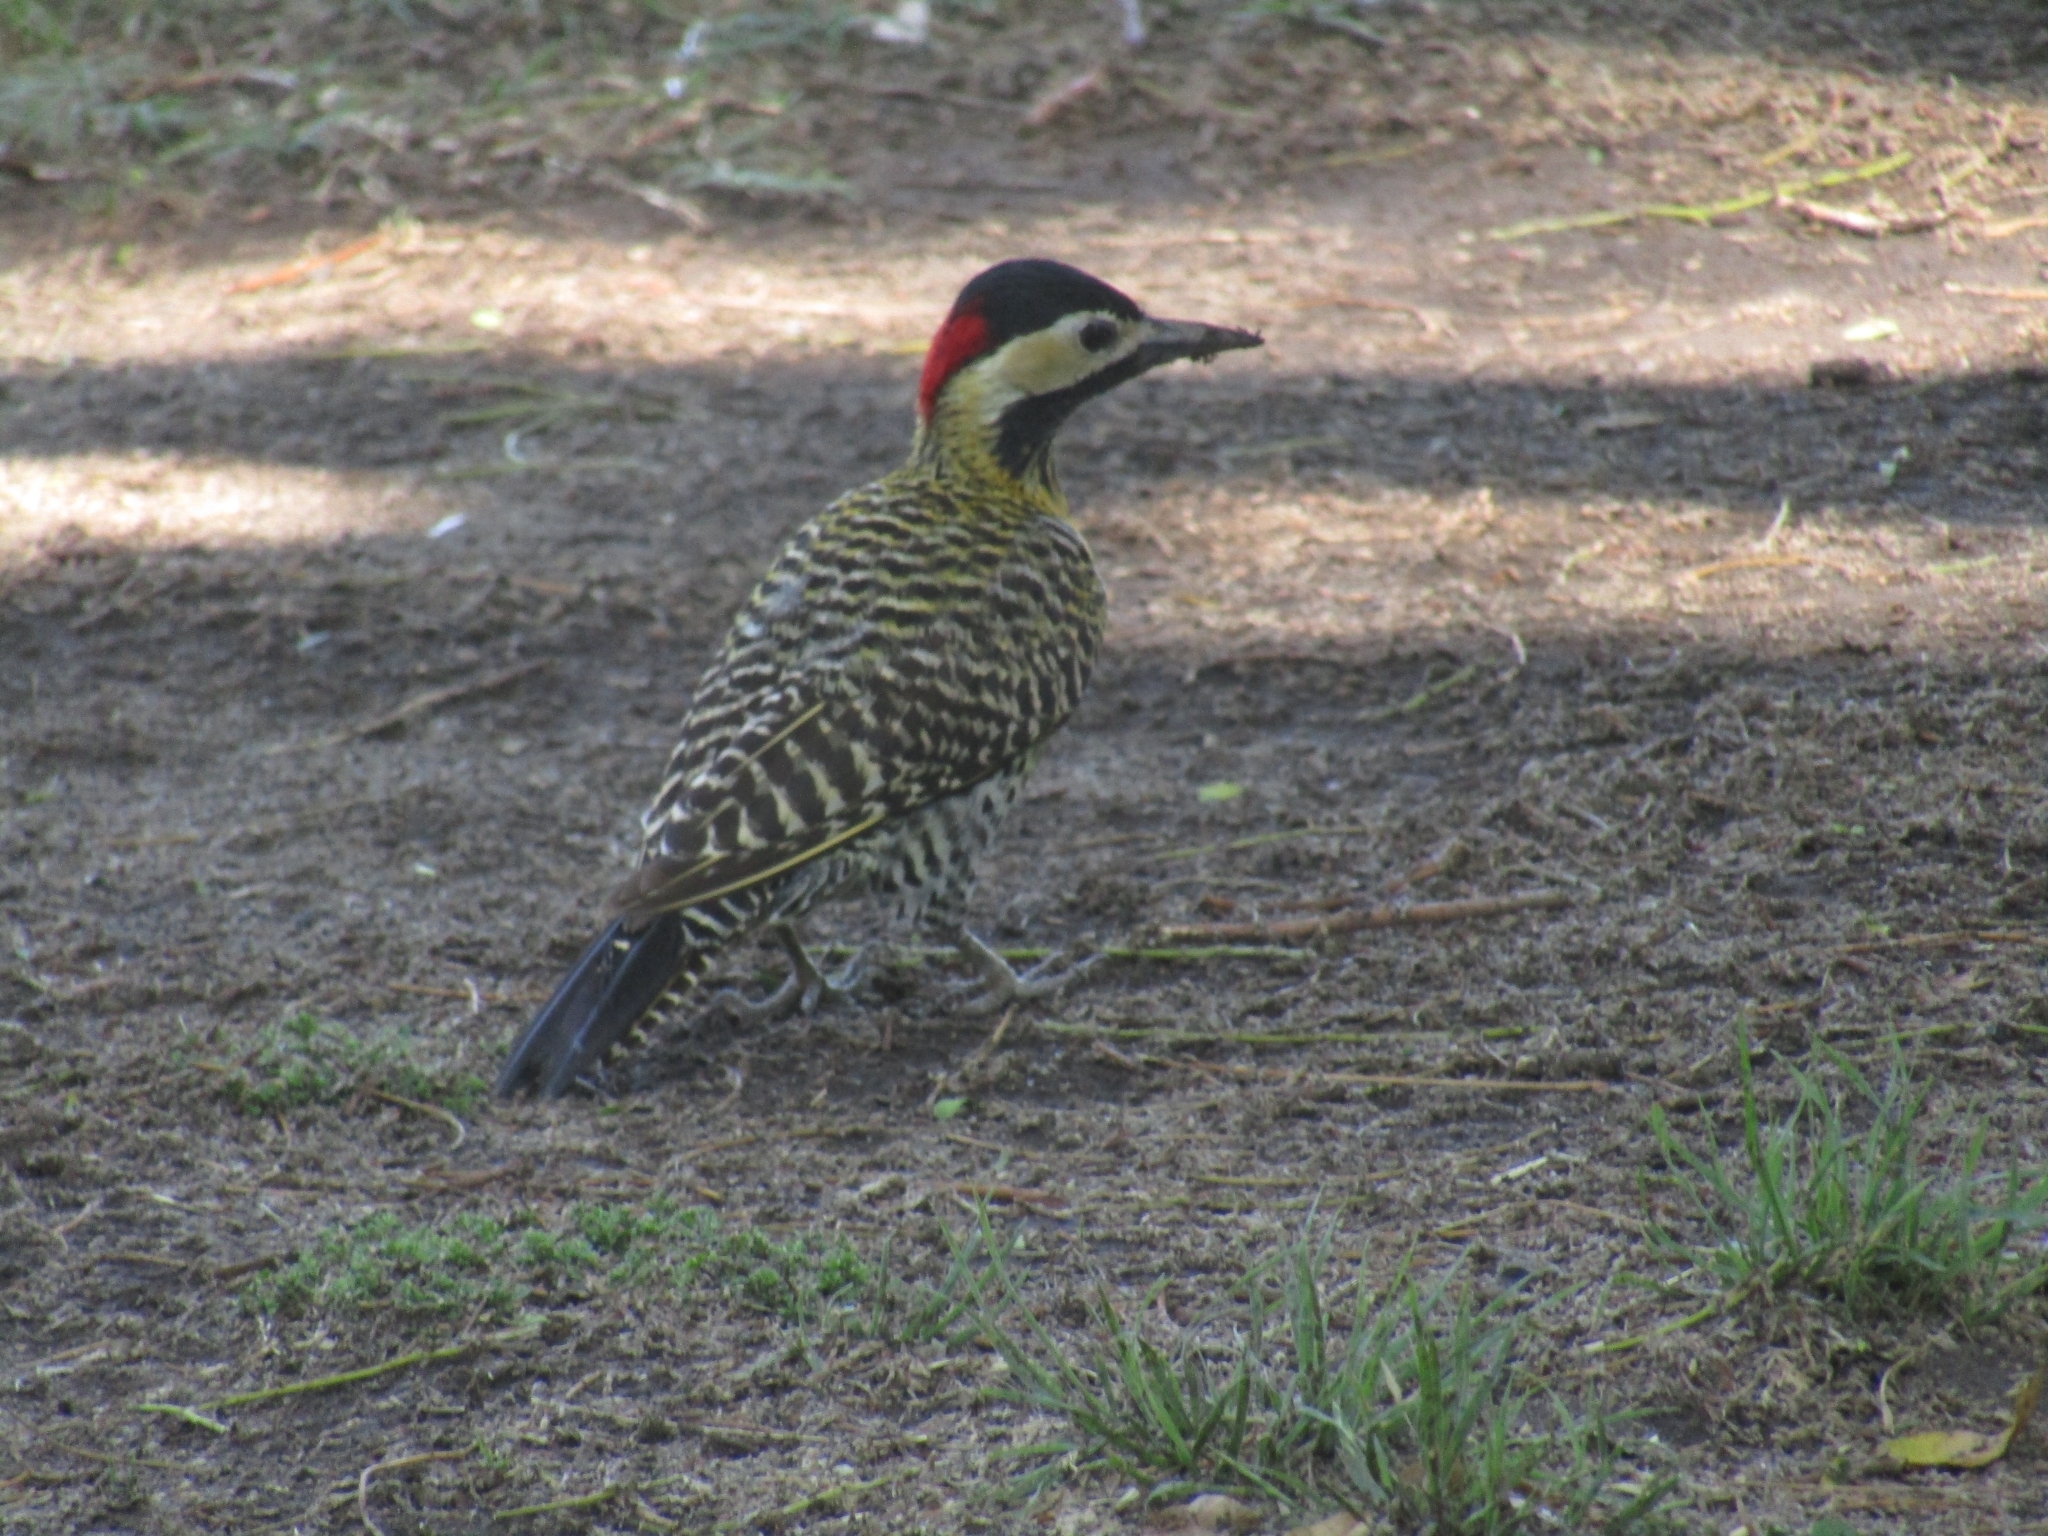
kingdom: Animalia
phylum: Chordata
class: Aves
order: Piciformes
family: Picidae
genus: Colaptes
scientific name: Colaptes melanochloros
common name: Green-barred woodpecker
